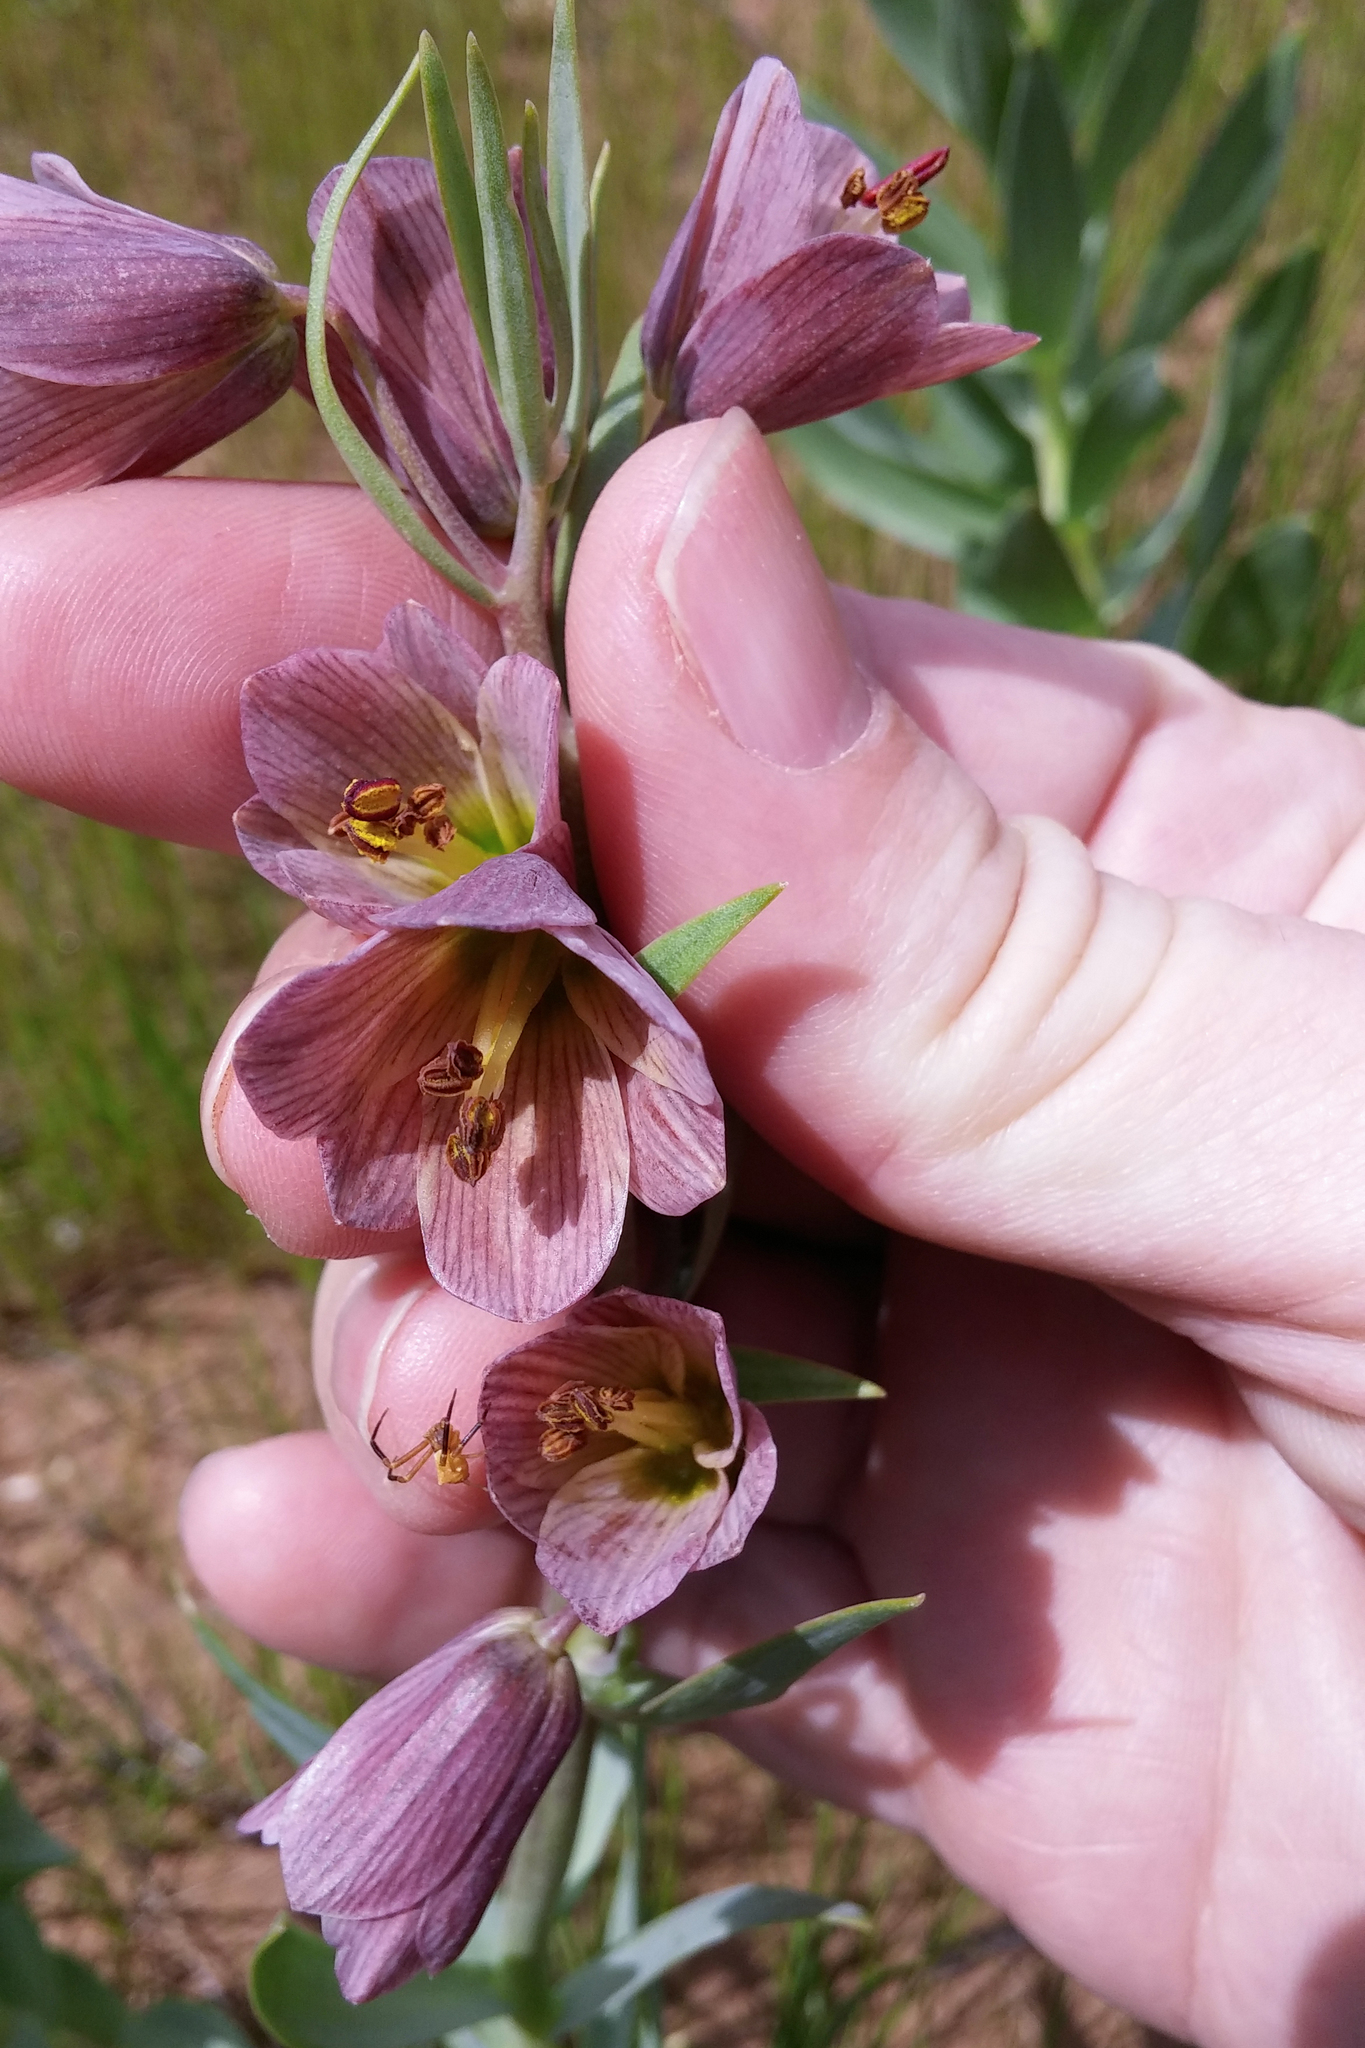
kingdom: Plantae
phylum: Tracheophyta
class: Liliopsida
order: Liliales
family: Liliaceae
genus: Fritillaria
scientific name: Fritillaria persica
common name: Persian fritillary
